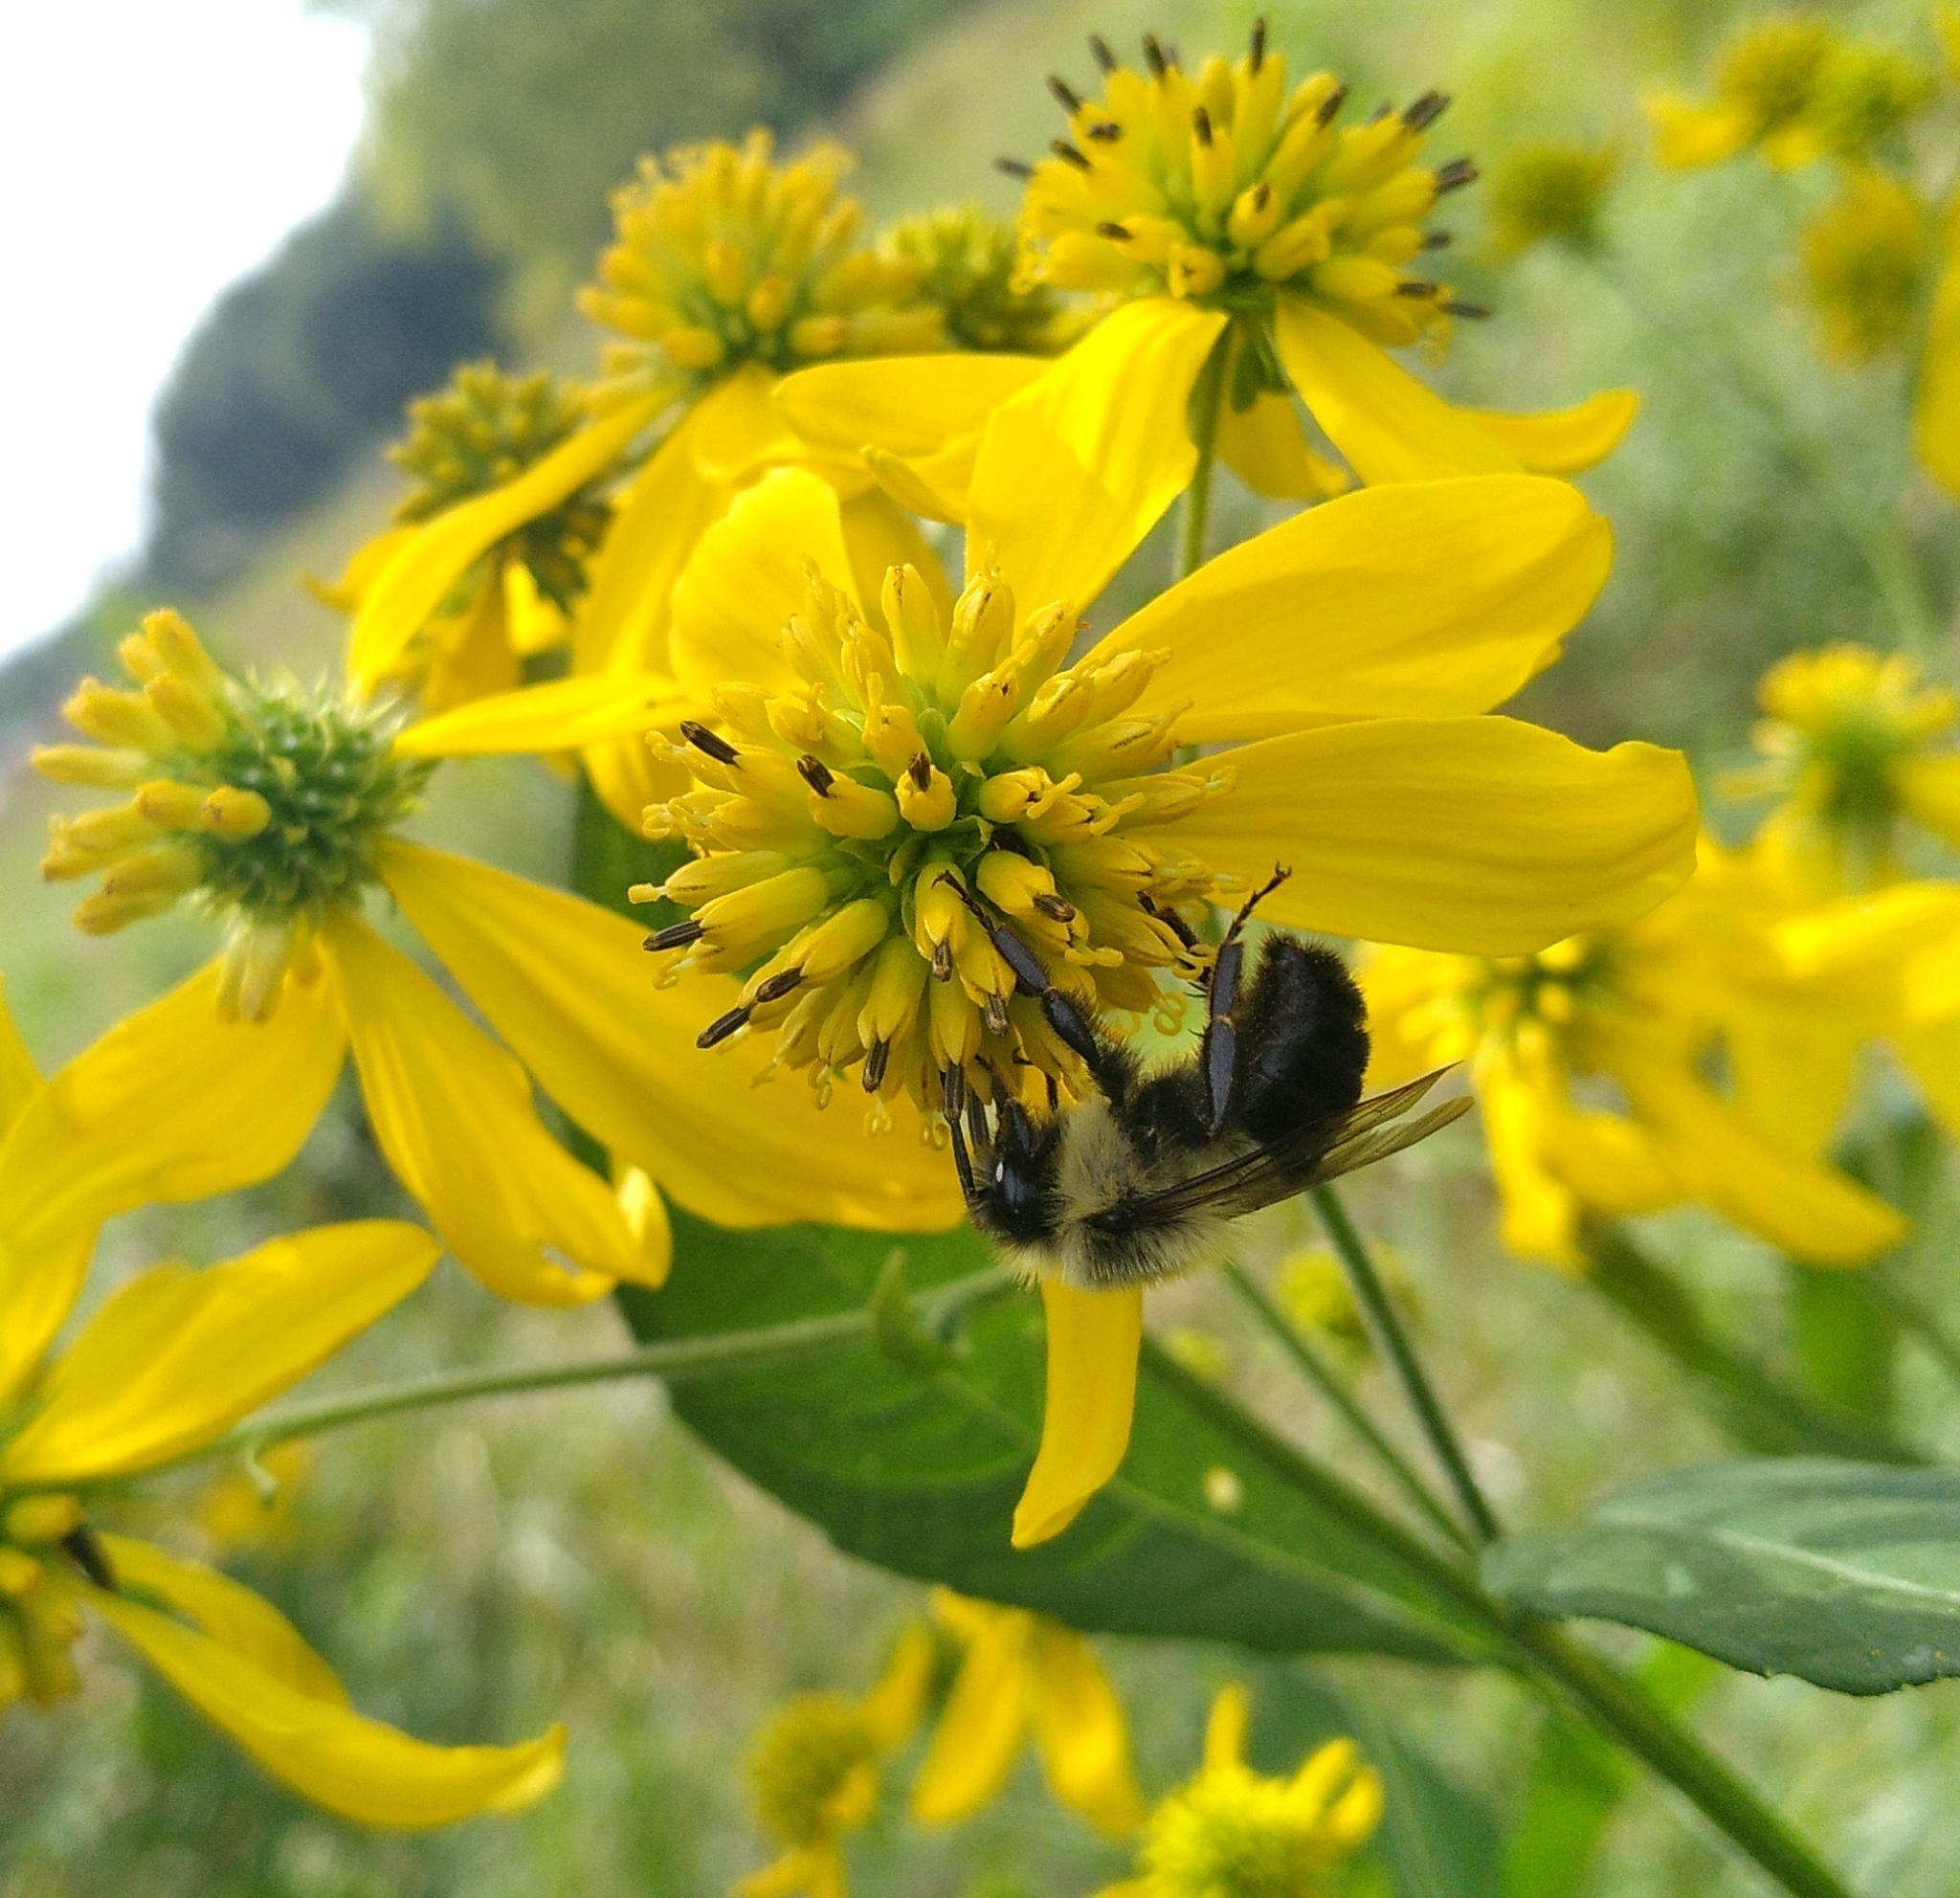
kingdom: Animalia
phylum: Arthropoda
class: Insecta
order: Hymenoptera
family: Apidae
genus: Bombus
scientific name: Bombus impatiens
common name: Common eastern bumble bee
